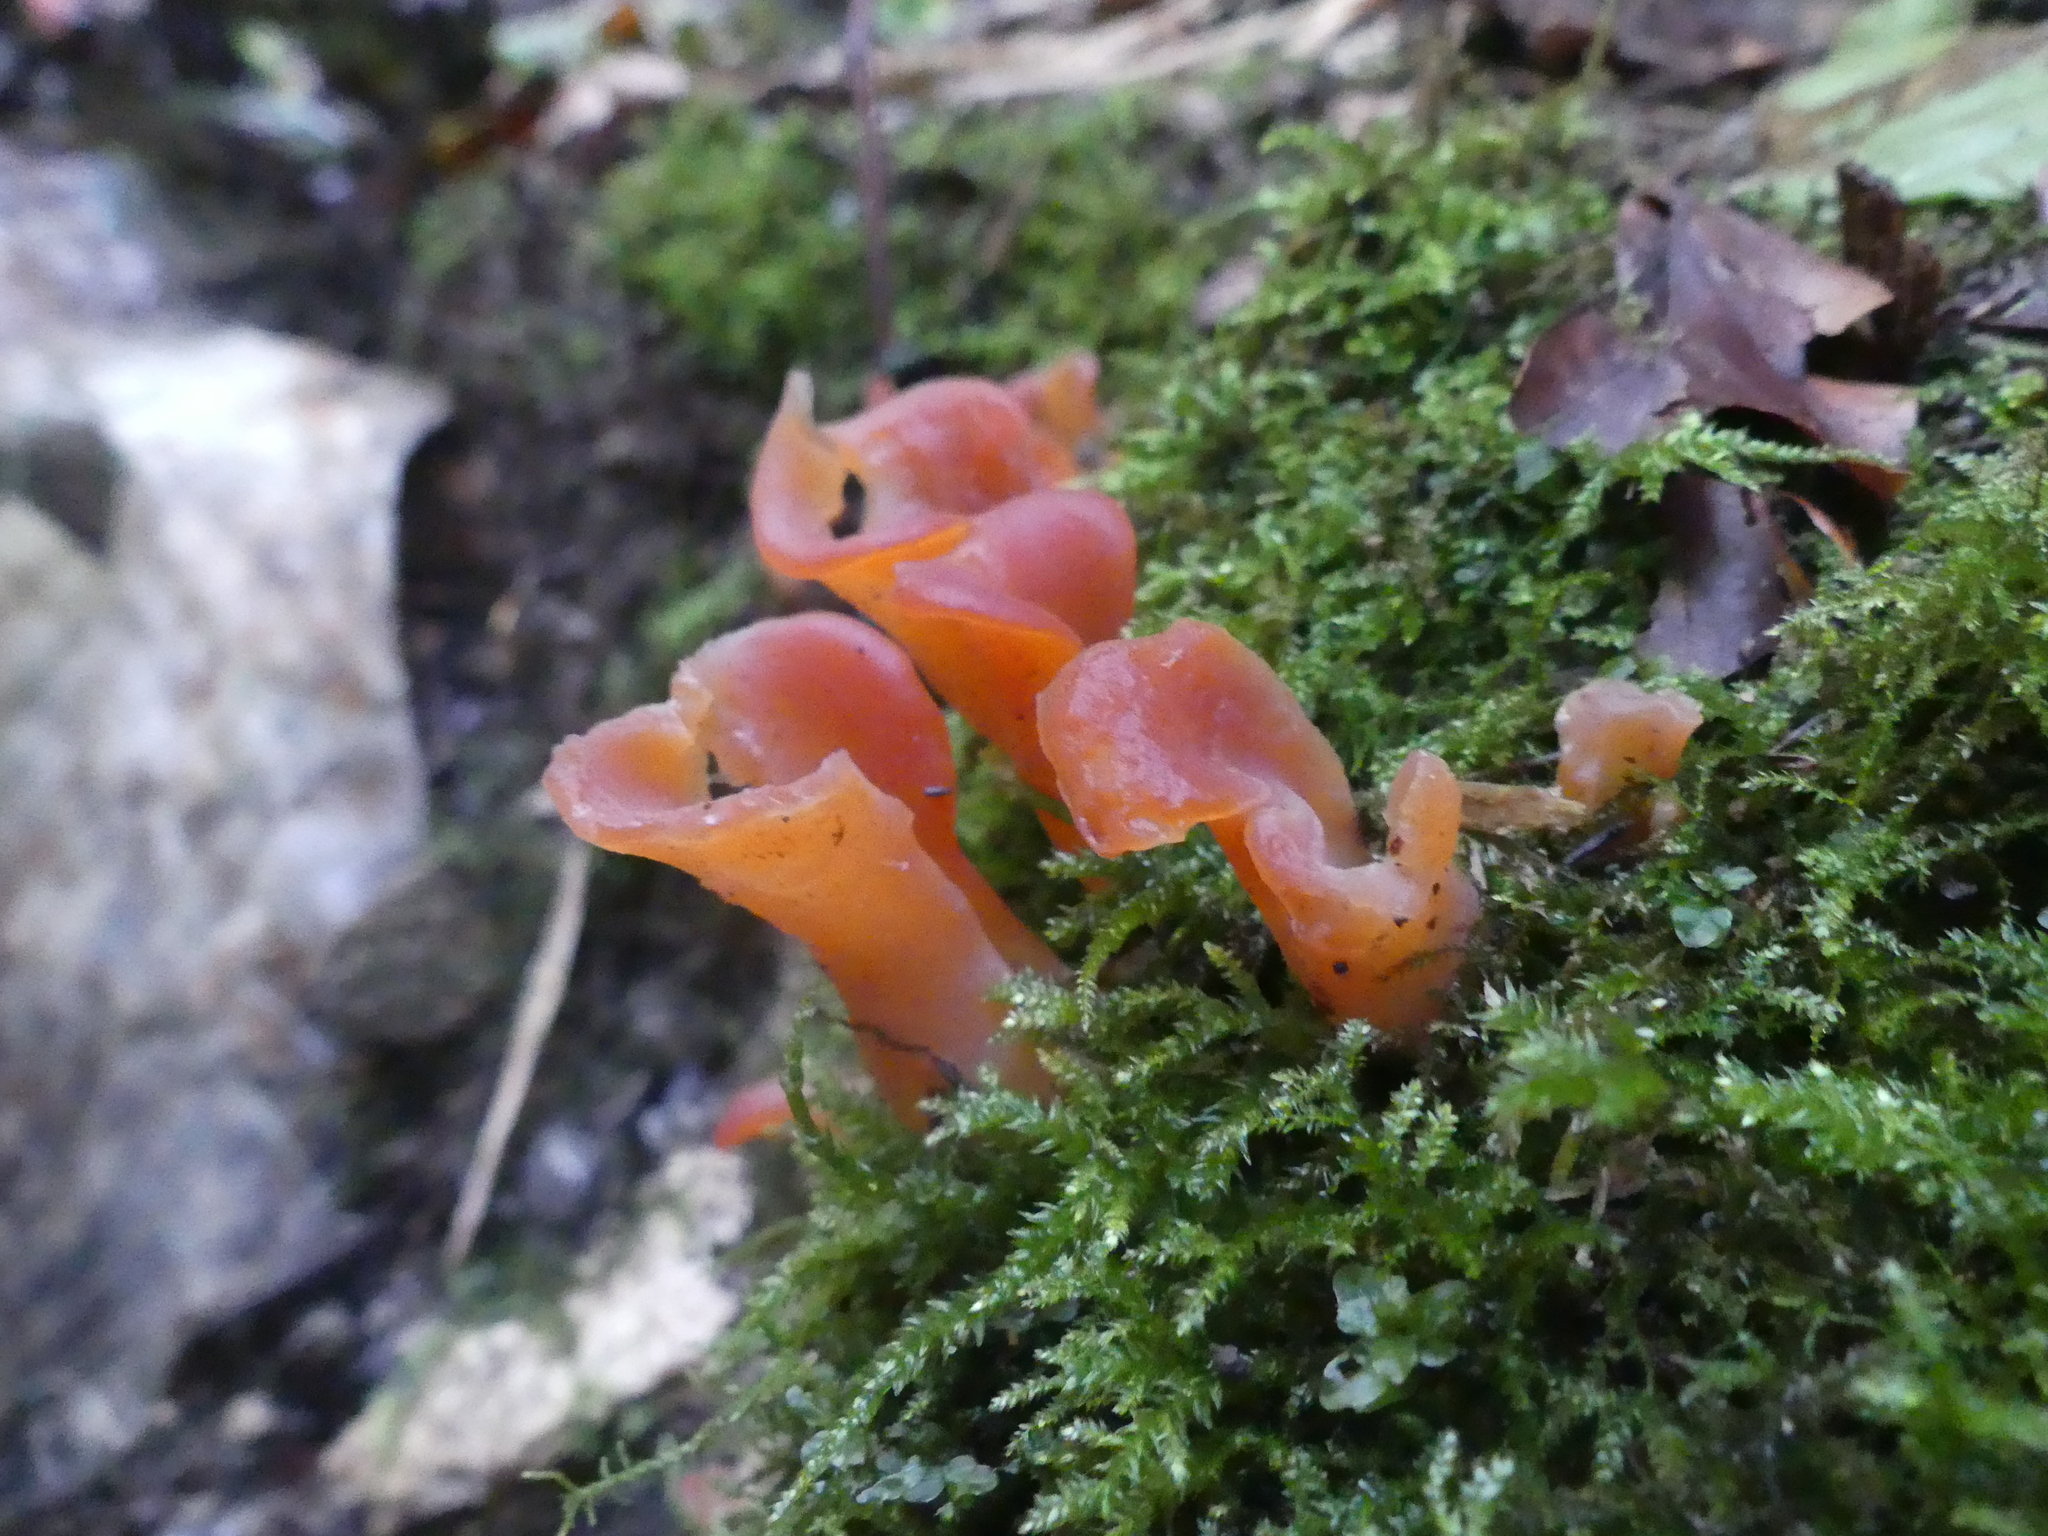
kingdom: Fungi
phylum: Basidiomycota
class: Agaricomycetes
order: Auriculariales
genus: Guepinia
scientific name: Guepinia helvelloides
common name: Salmon salad
